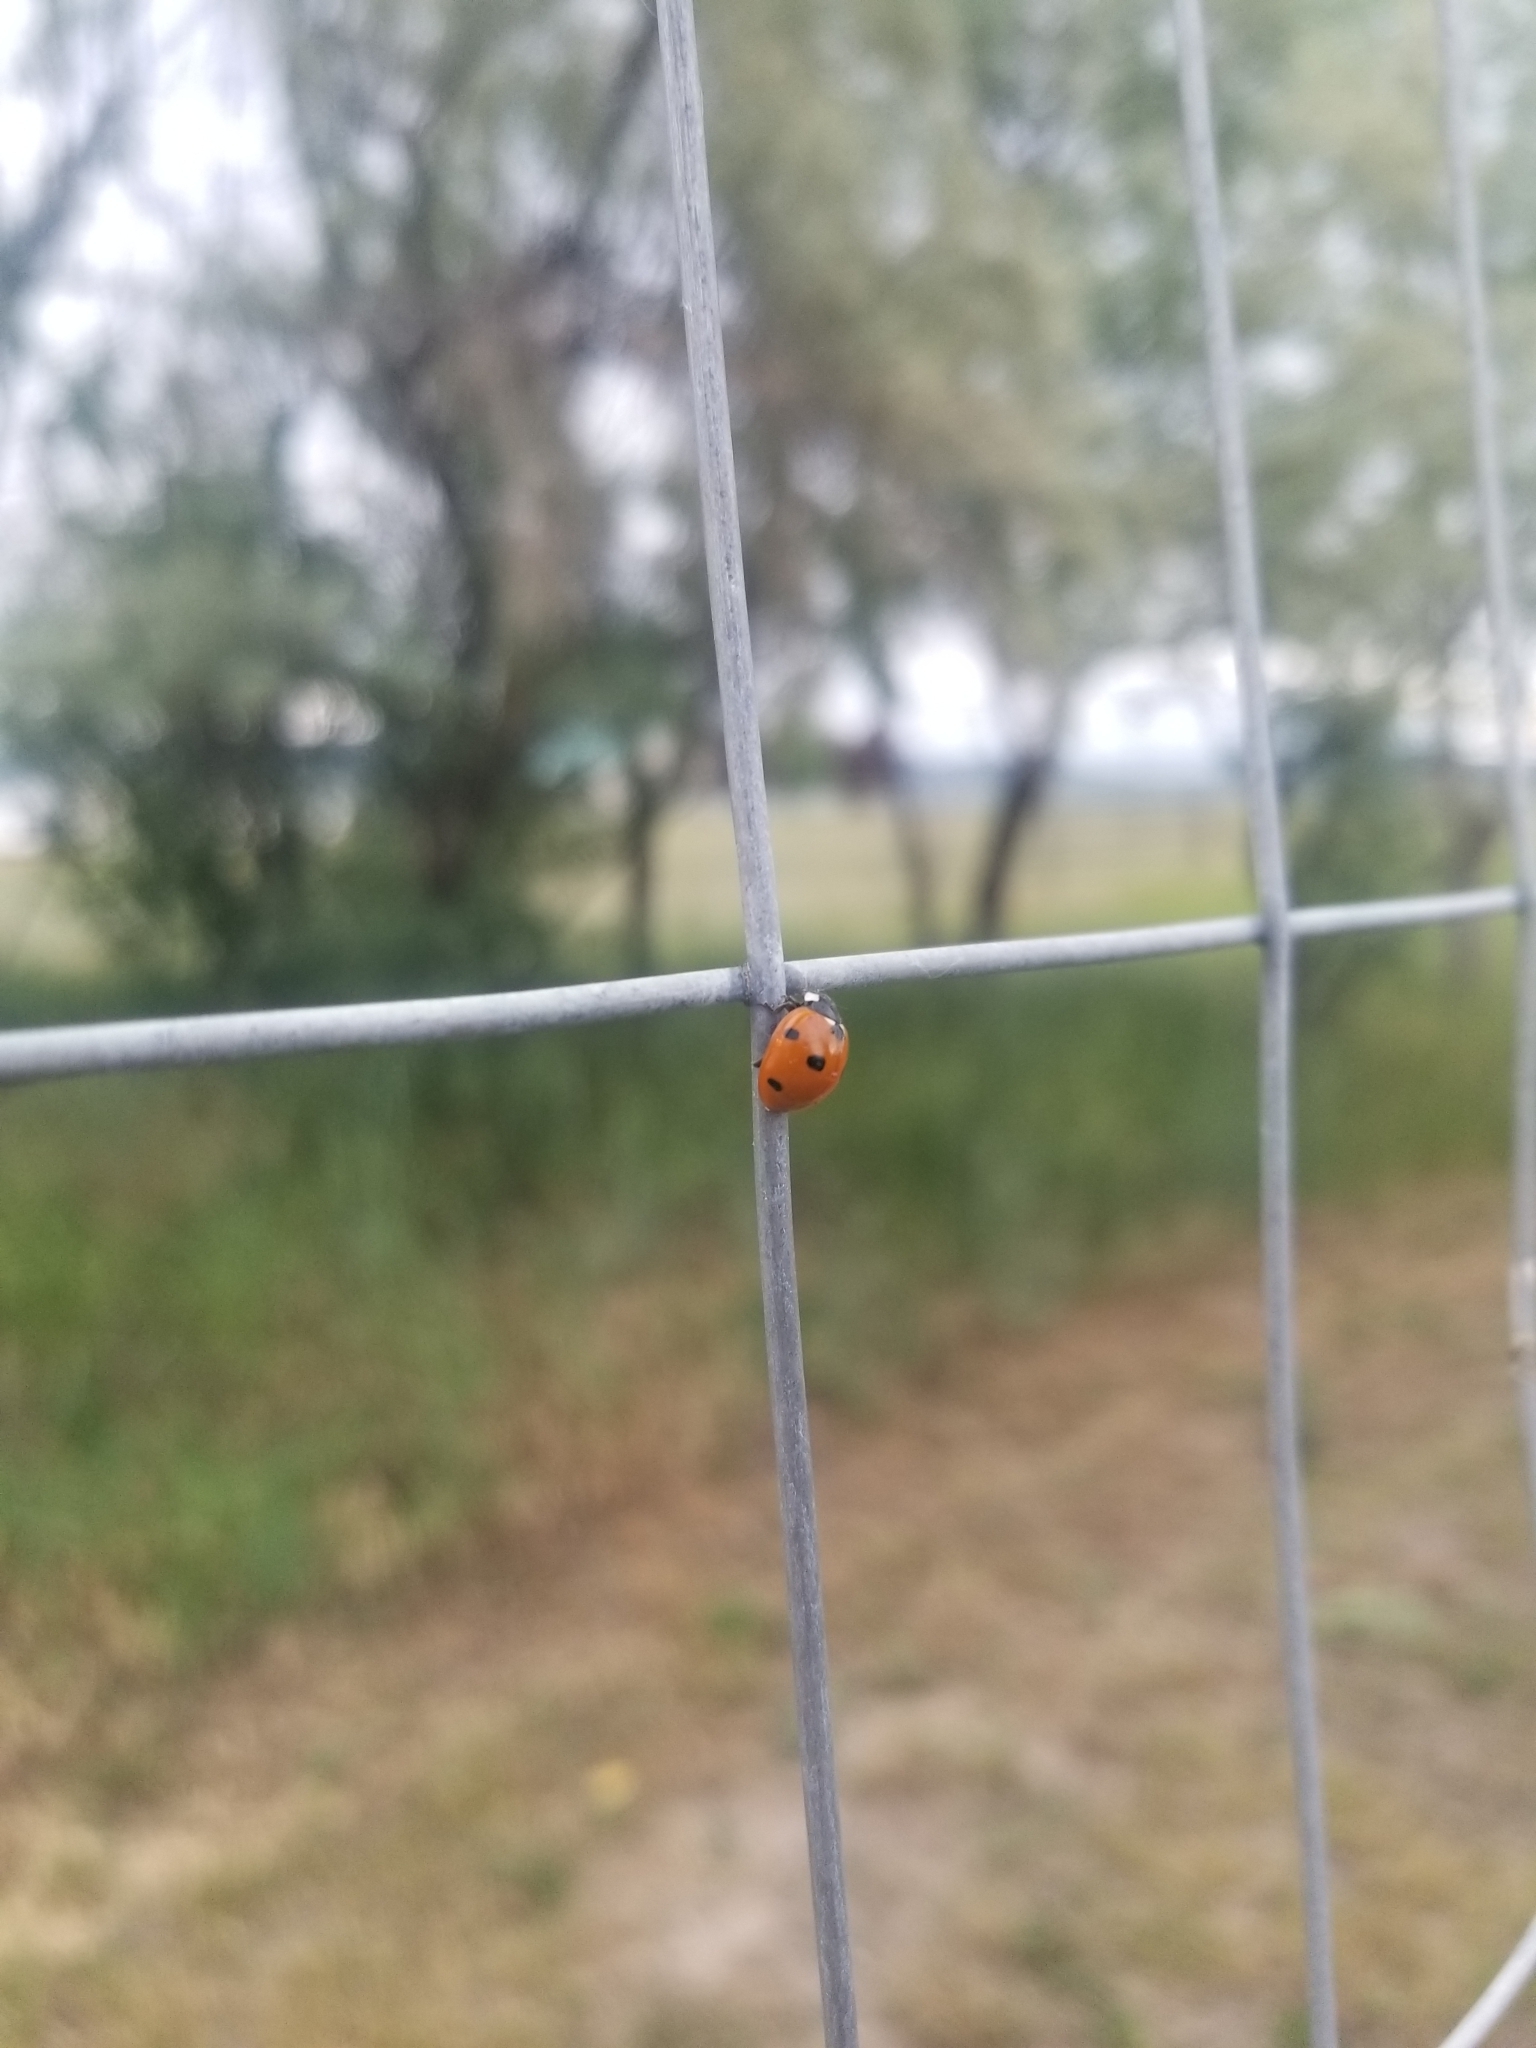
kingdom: Animalia
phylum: Arthropoda
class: Insecta
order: Coleoptera
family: Coccinellidae
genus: Coccinella
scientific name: Coccinella septempunctata
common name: Sevenspotted lady beetle
